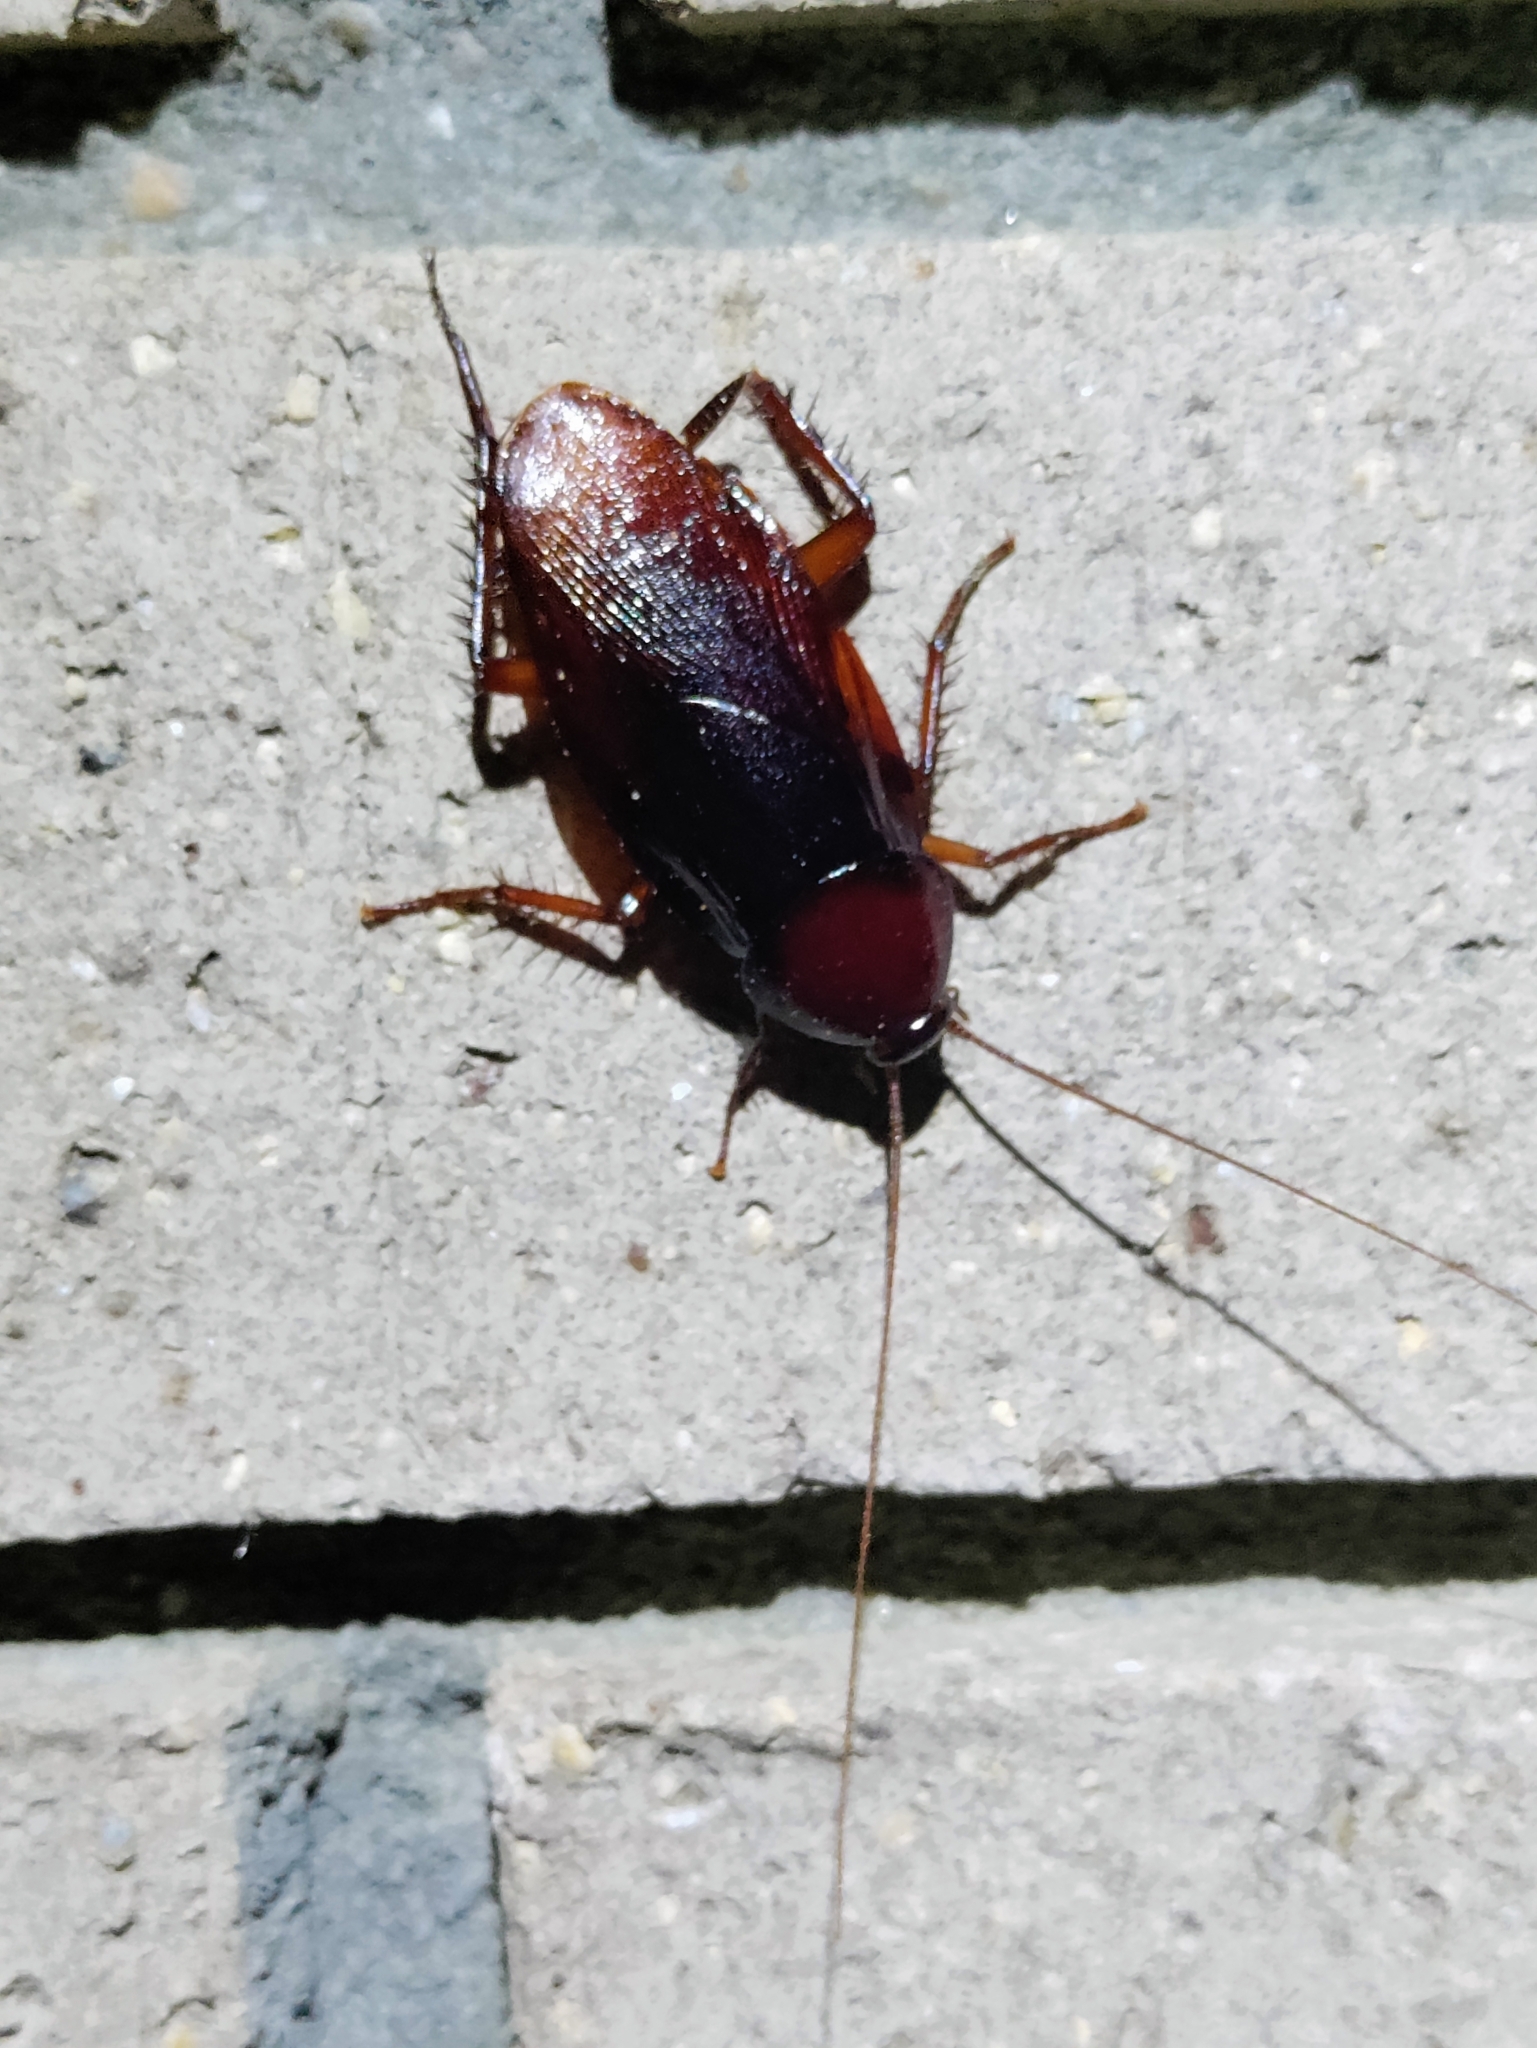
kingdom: Animalia
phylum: Arthropoda
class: Insecta
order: Blattodea
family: Blattidae
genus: Periplaneta
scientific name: Periplaneta fuliginosa
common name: Smokeybrown cockroad
